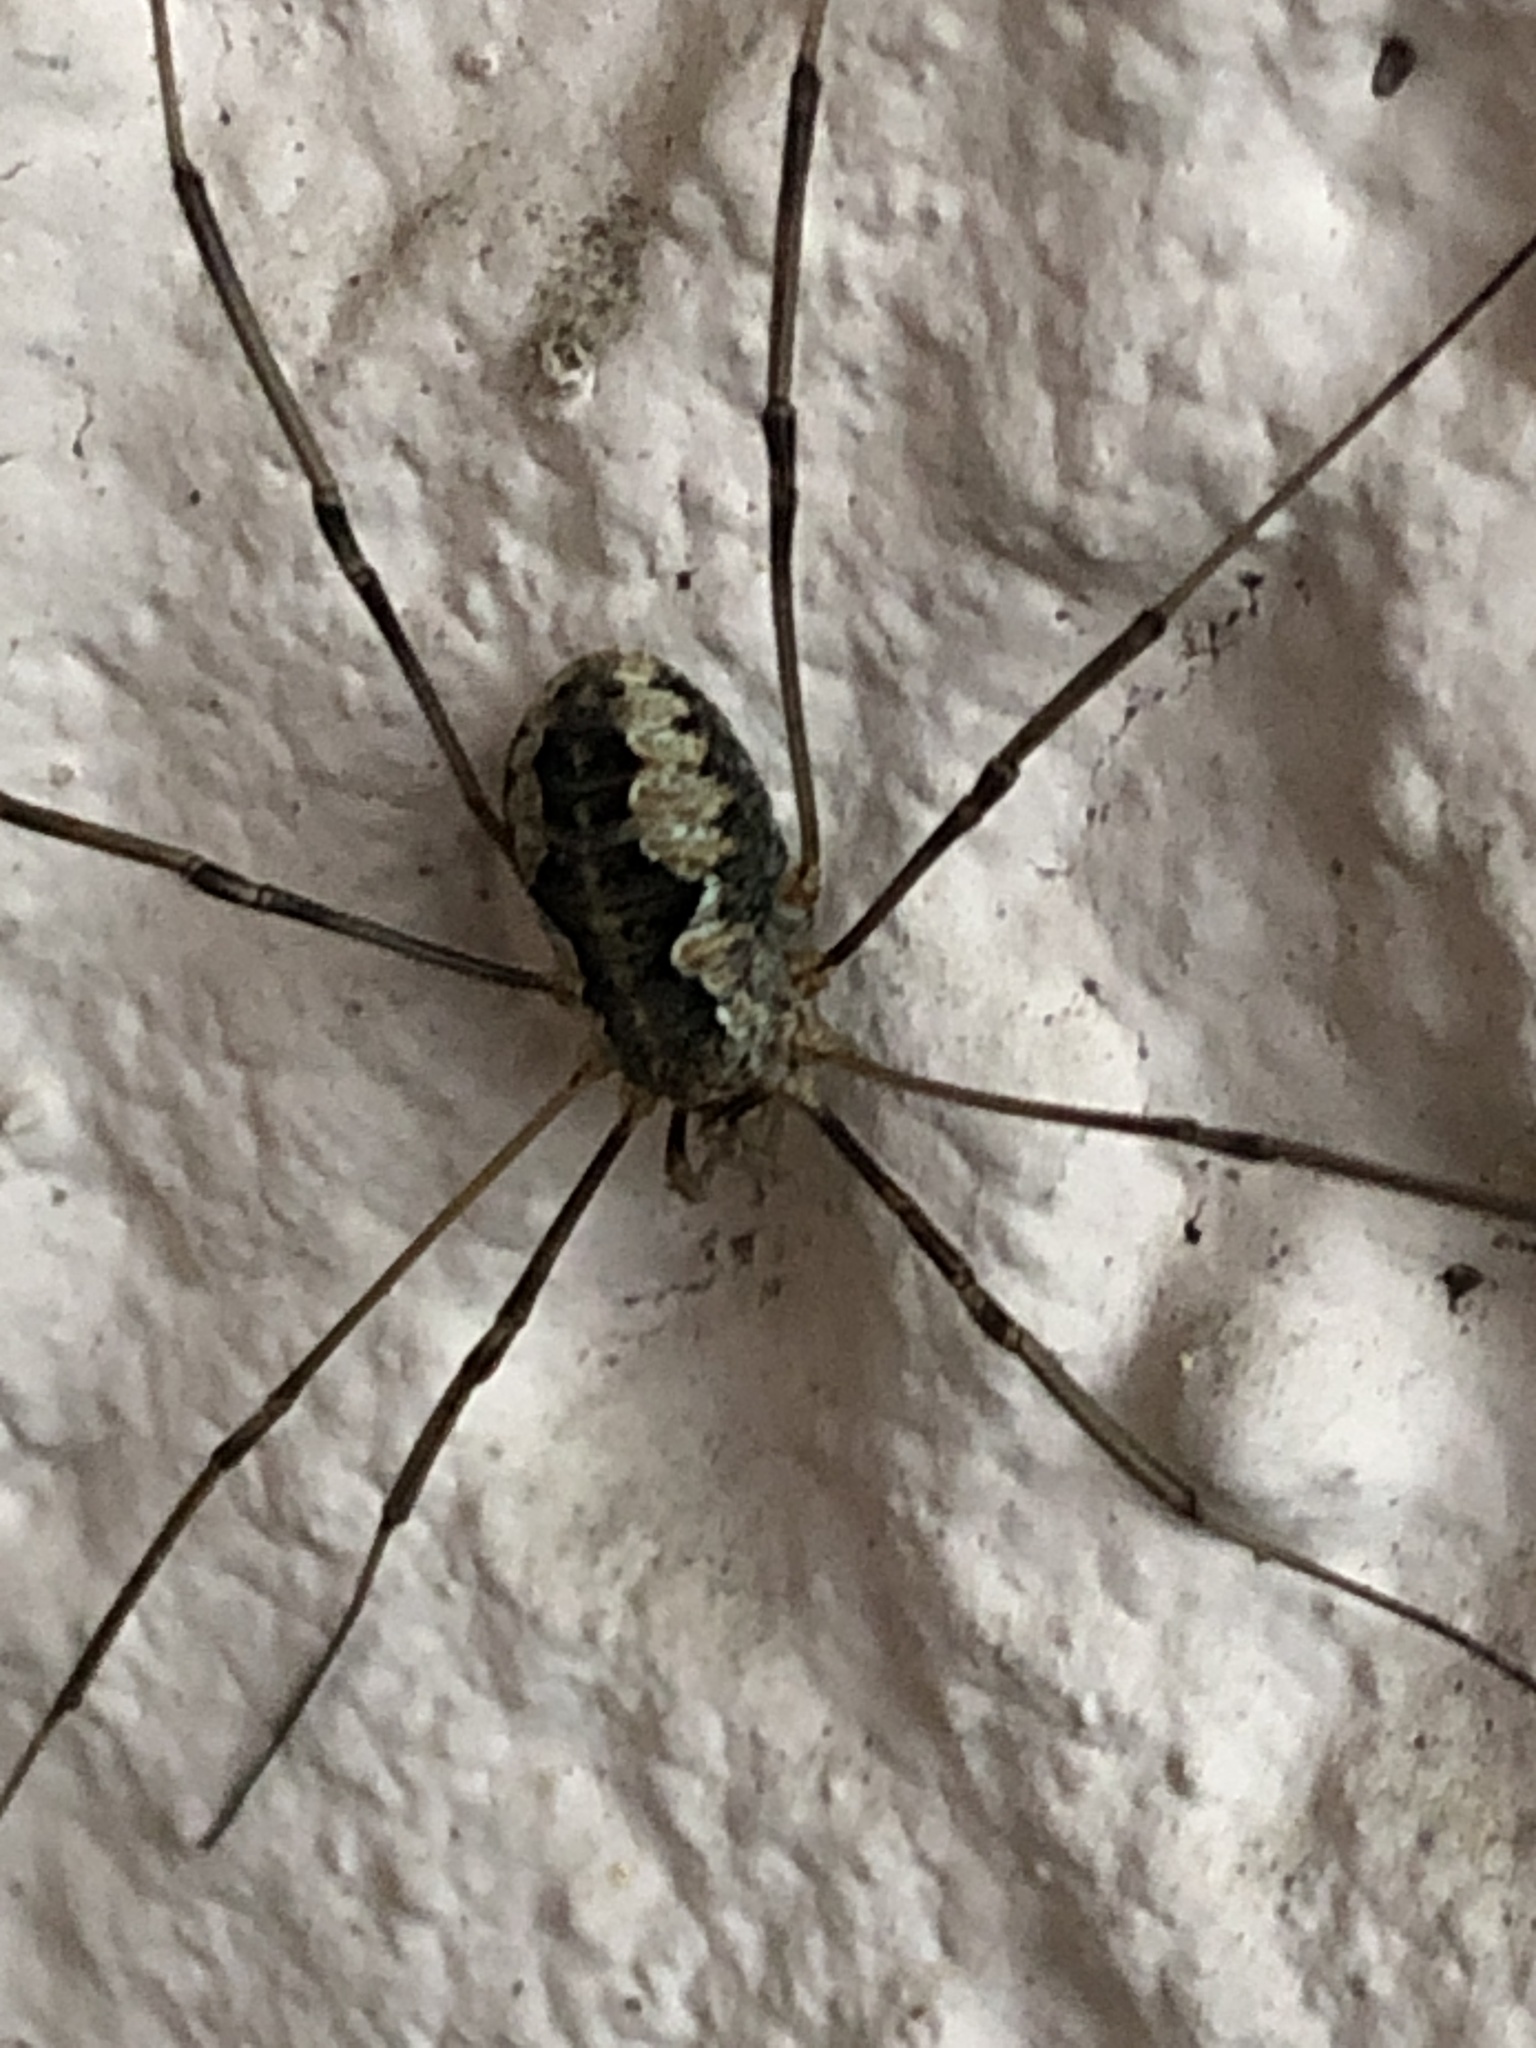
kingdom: Animalia
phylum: Arthropoda
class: Arachnida
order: Opiliones
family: Phalangiidae
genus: Phalangium
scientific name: Phalangium opilio
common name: Daddy longleg
